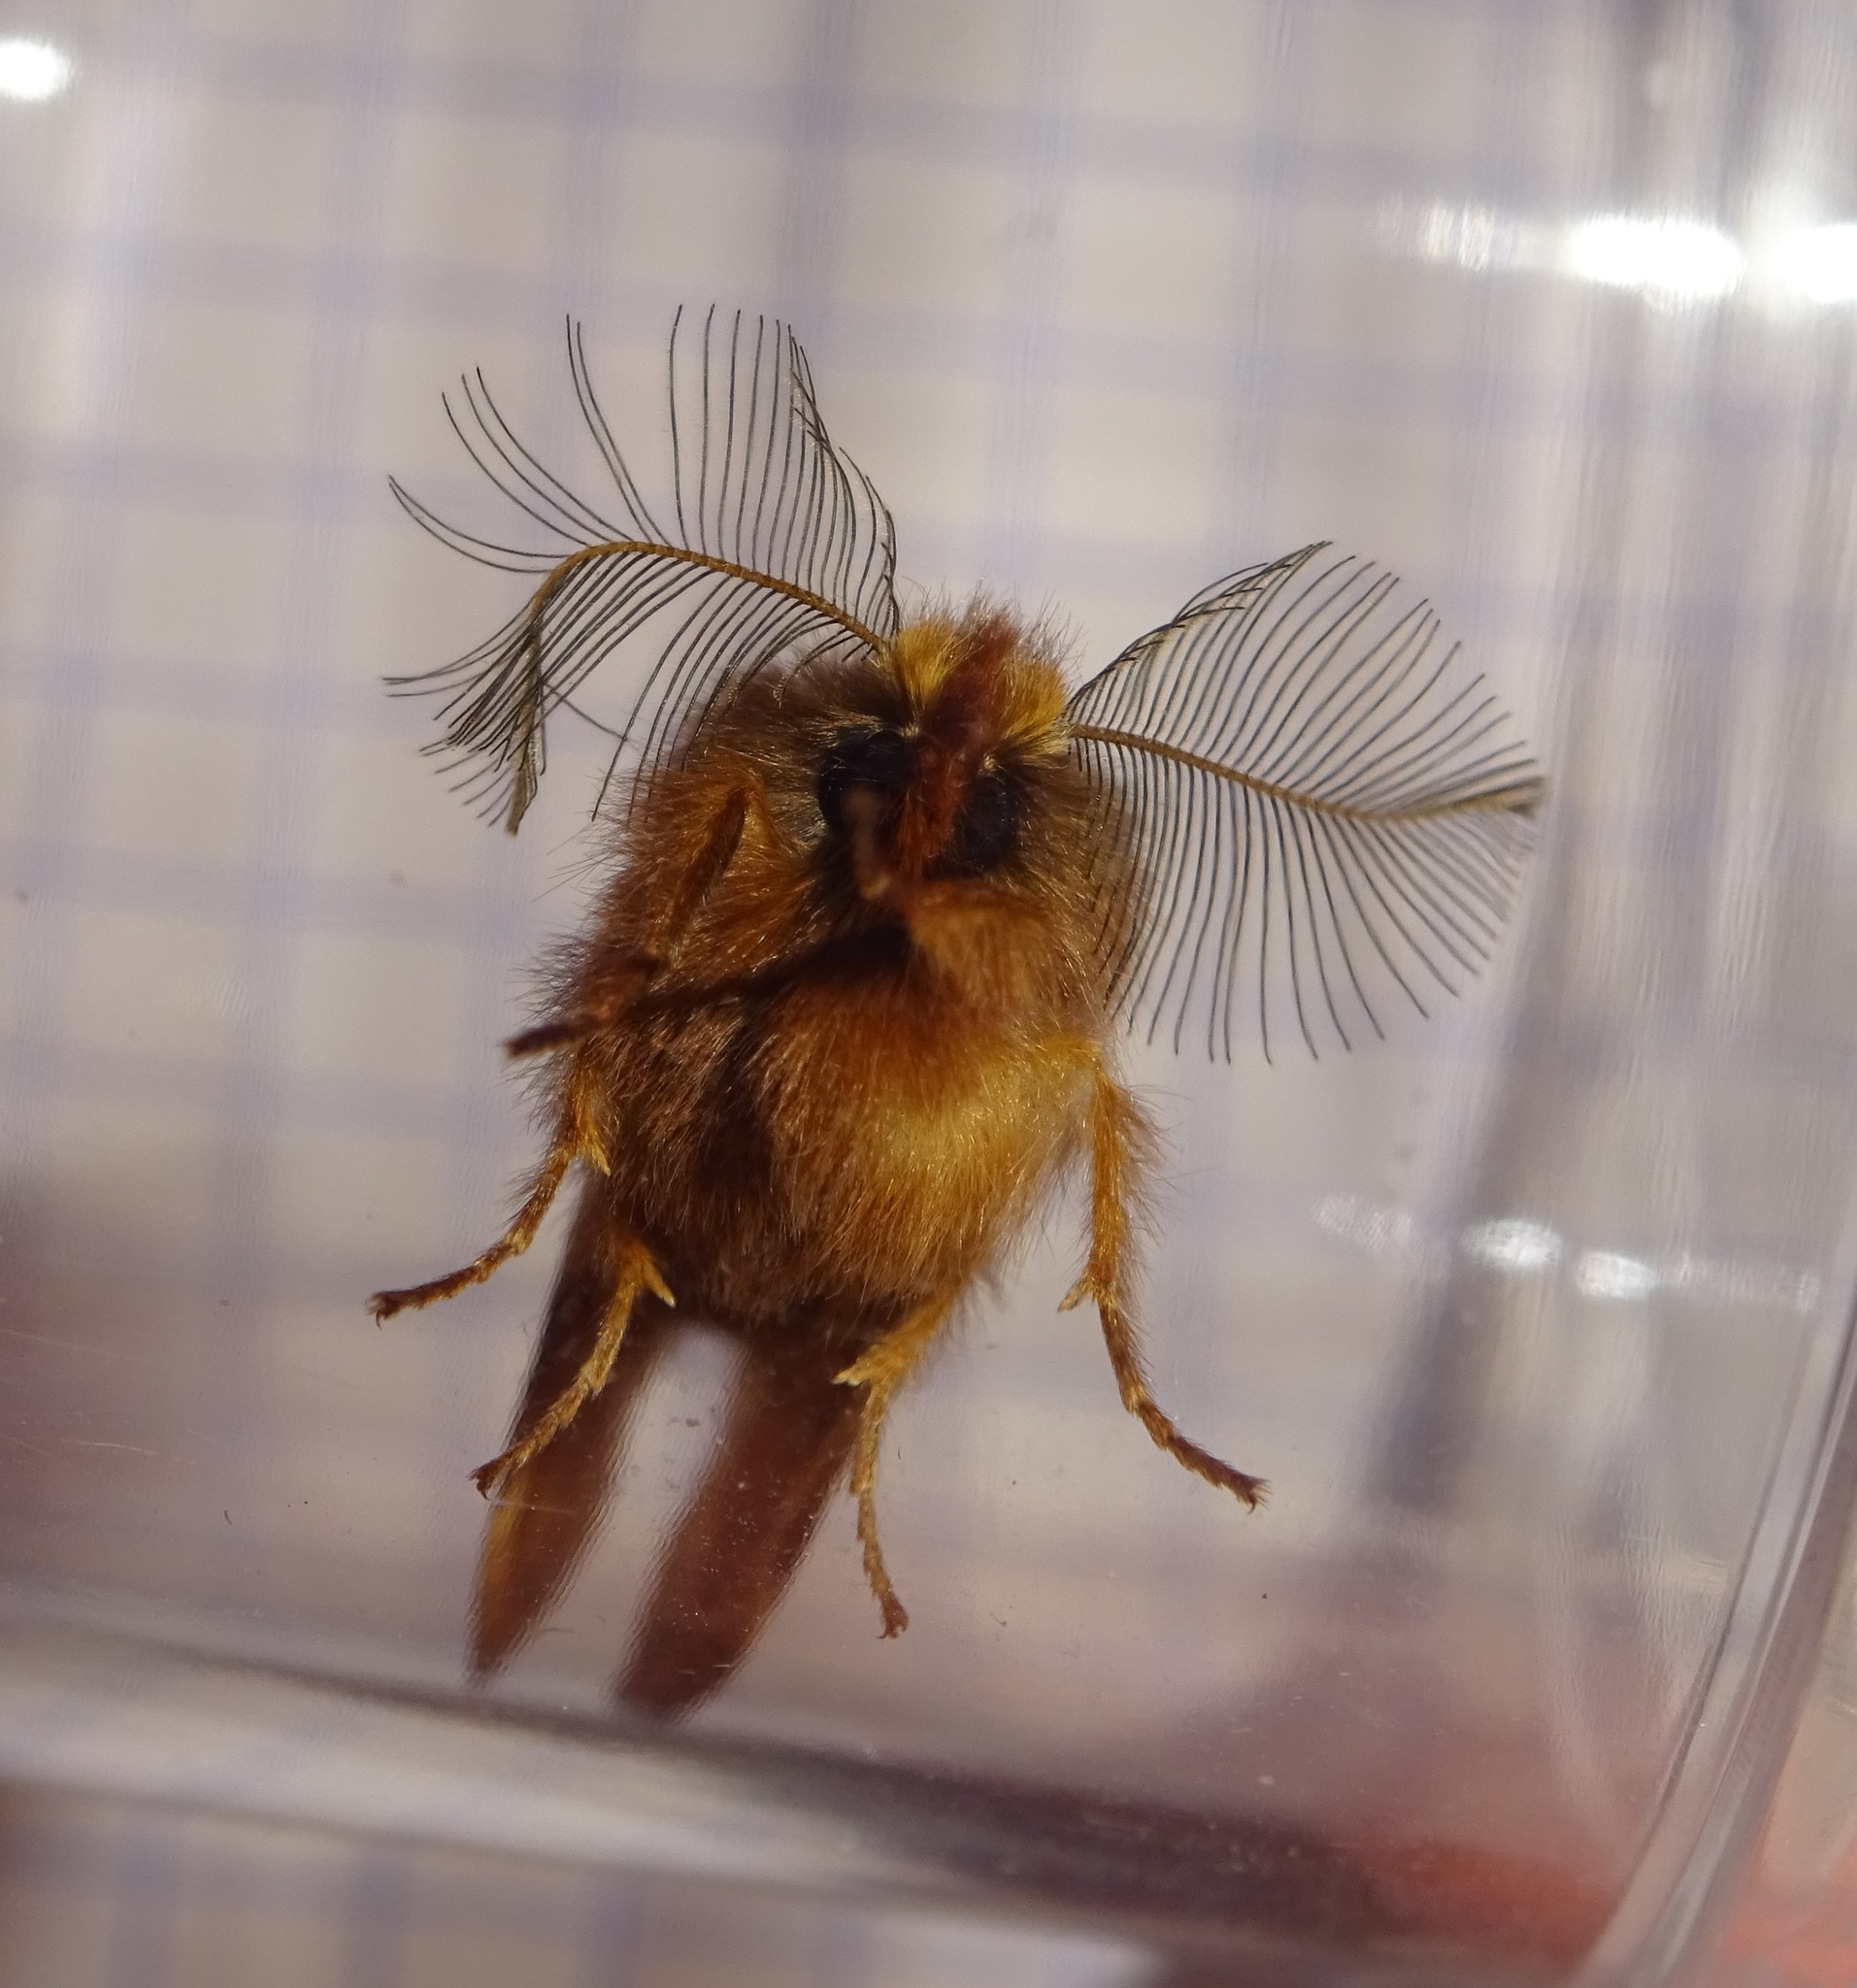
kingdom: Animalia
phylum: Arthropoda
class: Insecta
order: Lepidoptera
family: Notodontidae
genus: Ptilophora
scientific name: Ptilophora plumigera
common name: Plumed prominent
